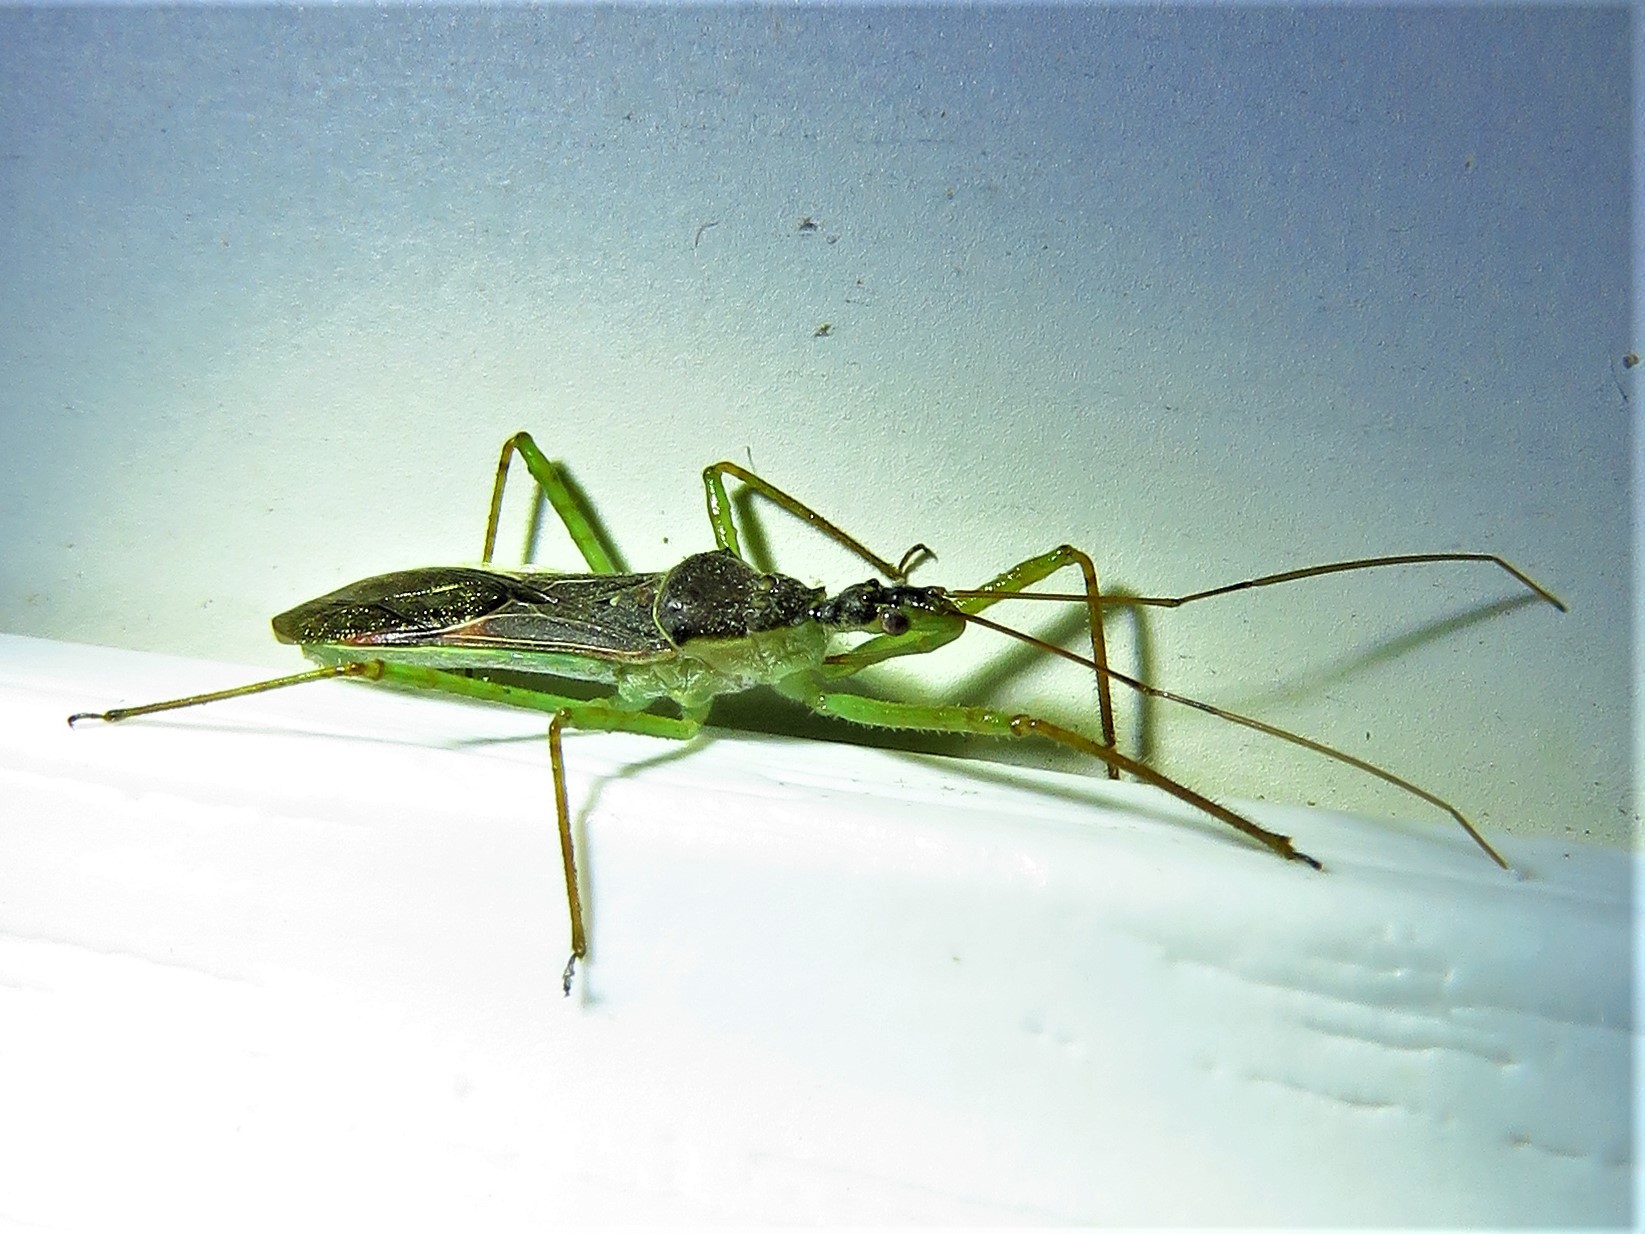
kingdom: Animalia
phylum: Arthropoda
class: Insecta
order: Hemiptera
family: Reduviidae
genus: Zelus
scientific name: Zelus renardii
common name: Assassin bug
